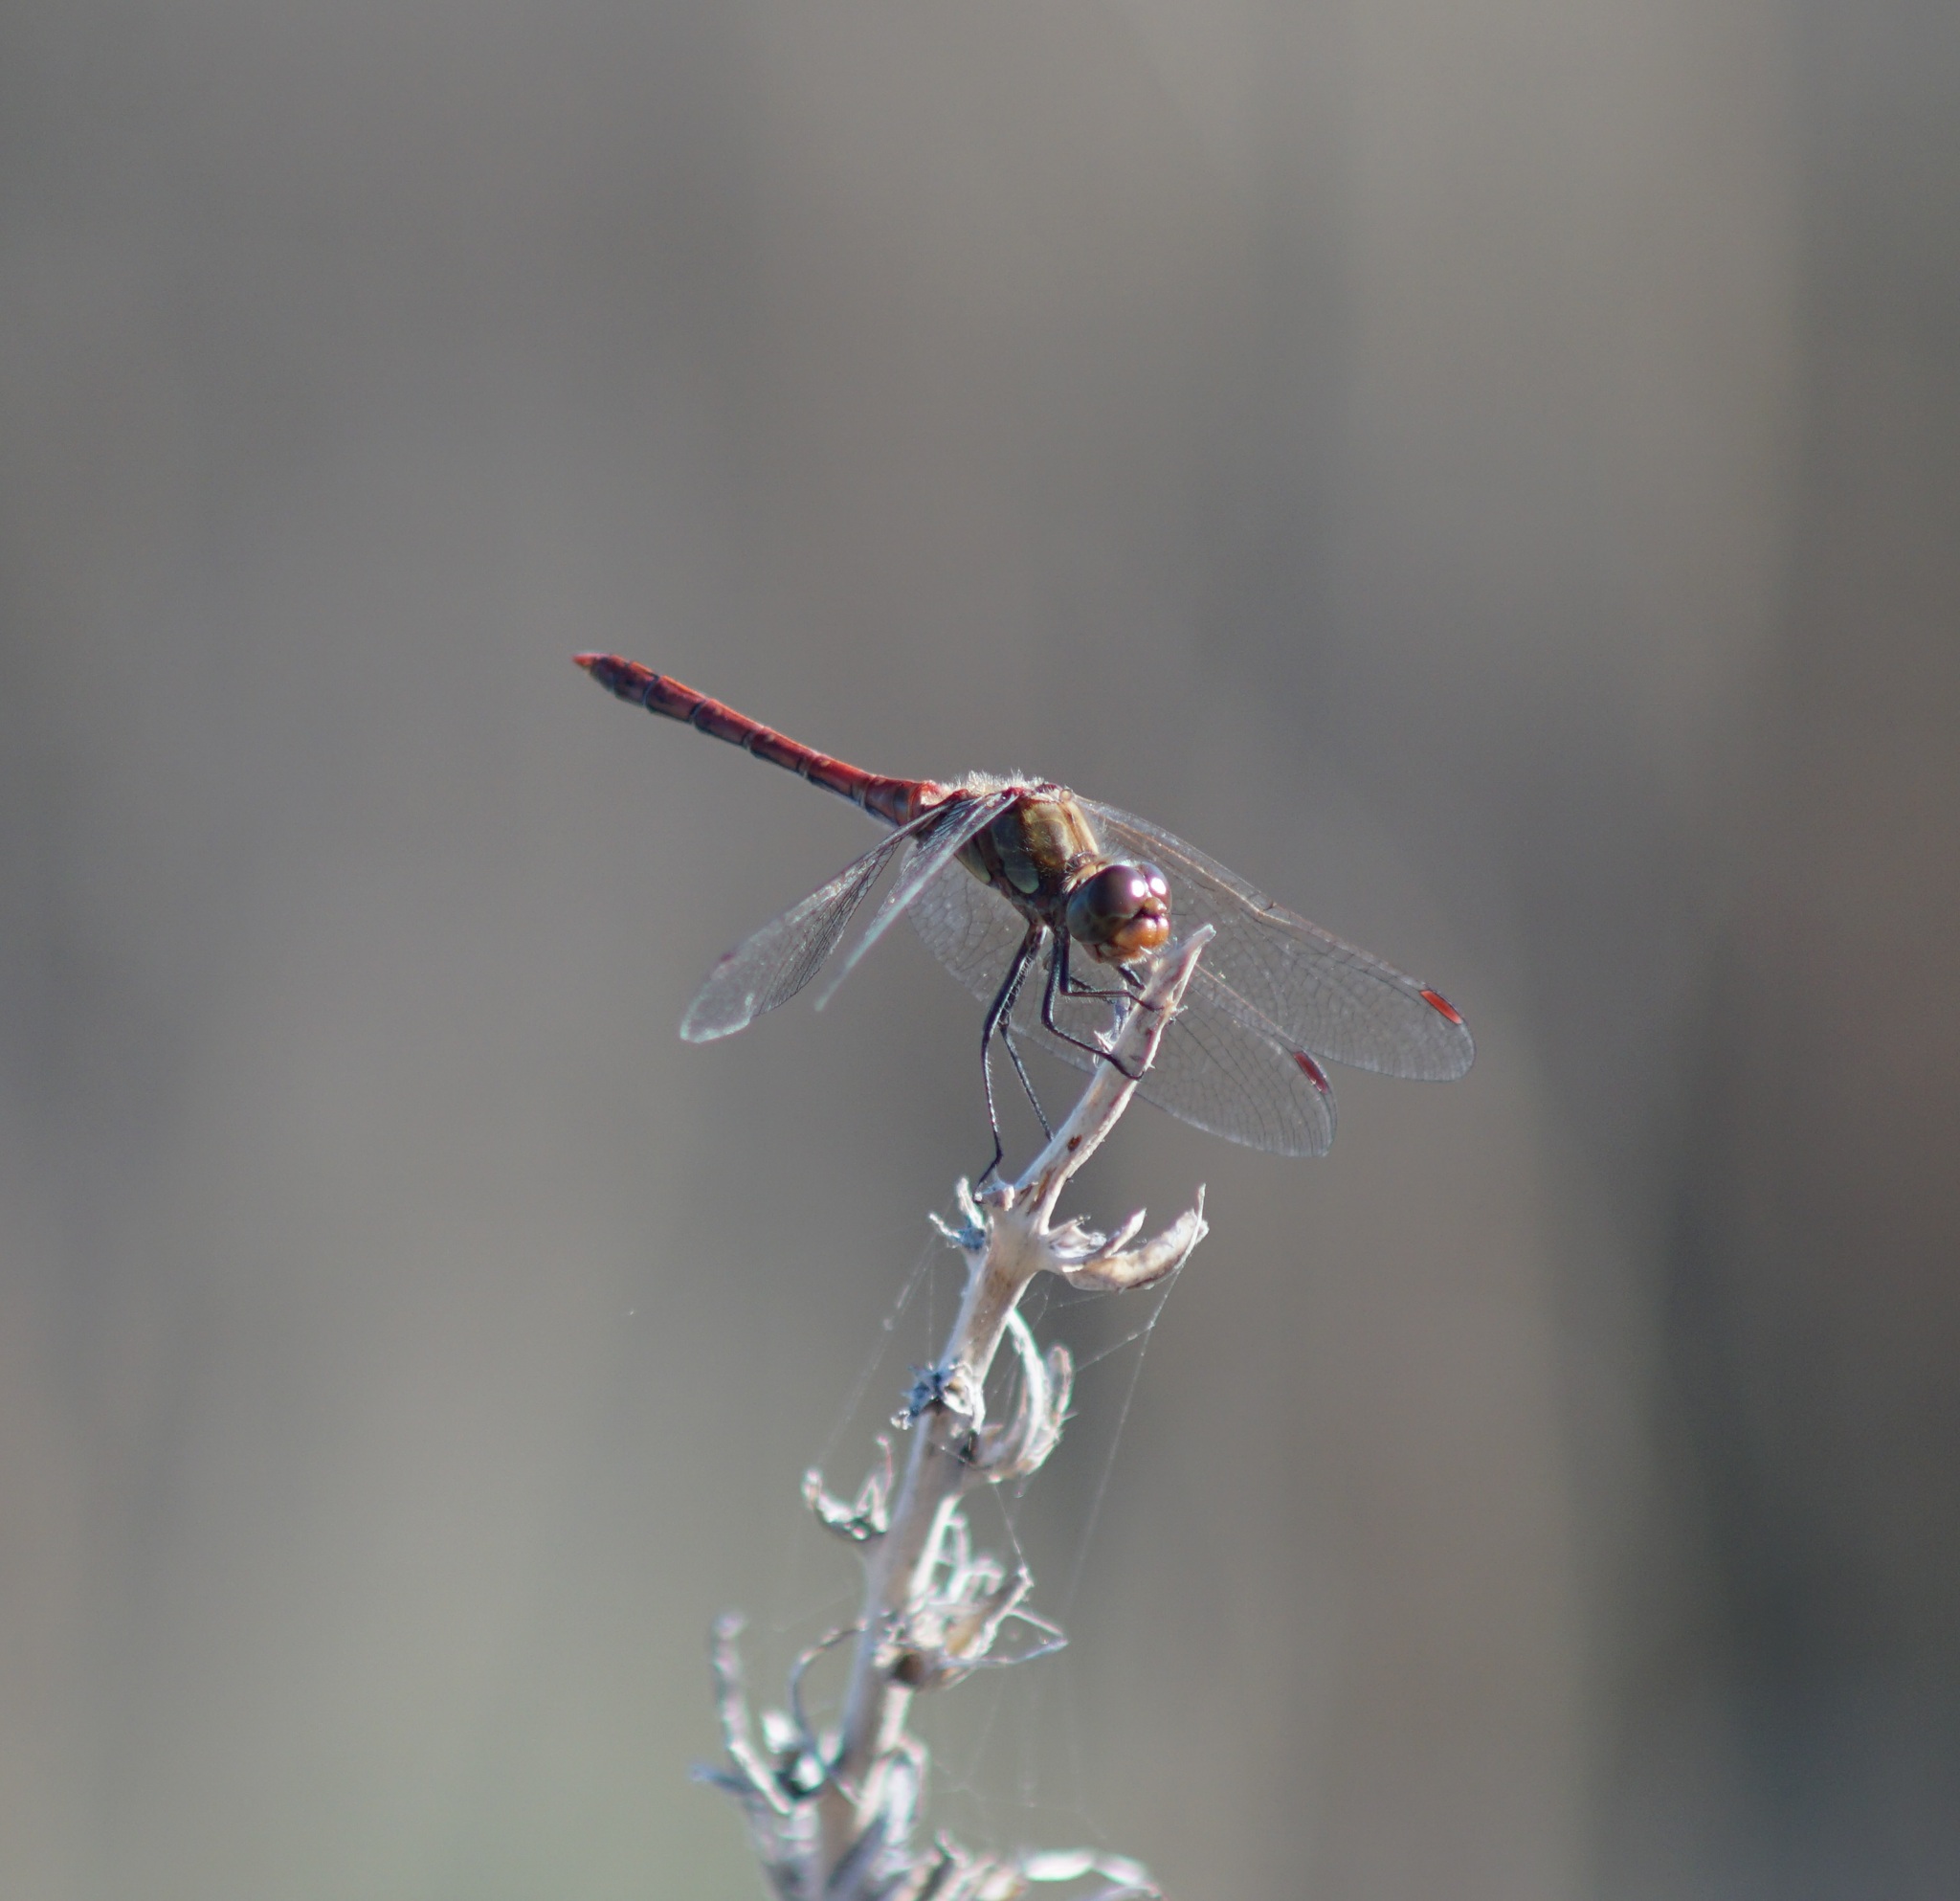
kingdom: Animalia
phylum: Arthropoda
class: Insecta
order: Odonata
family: Libellulidae
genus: Sympetrum
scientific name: Sympetrum striolatum
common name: Common darter
